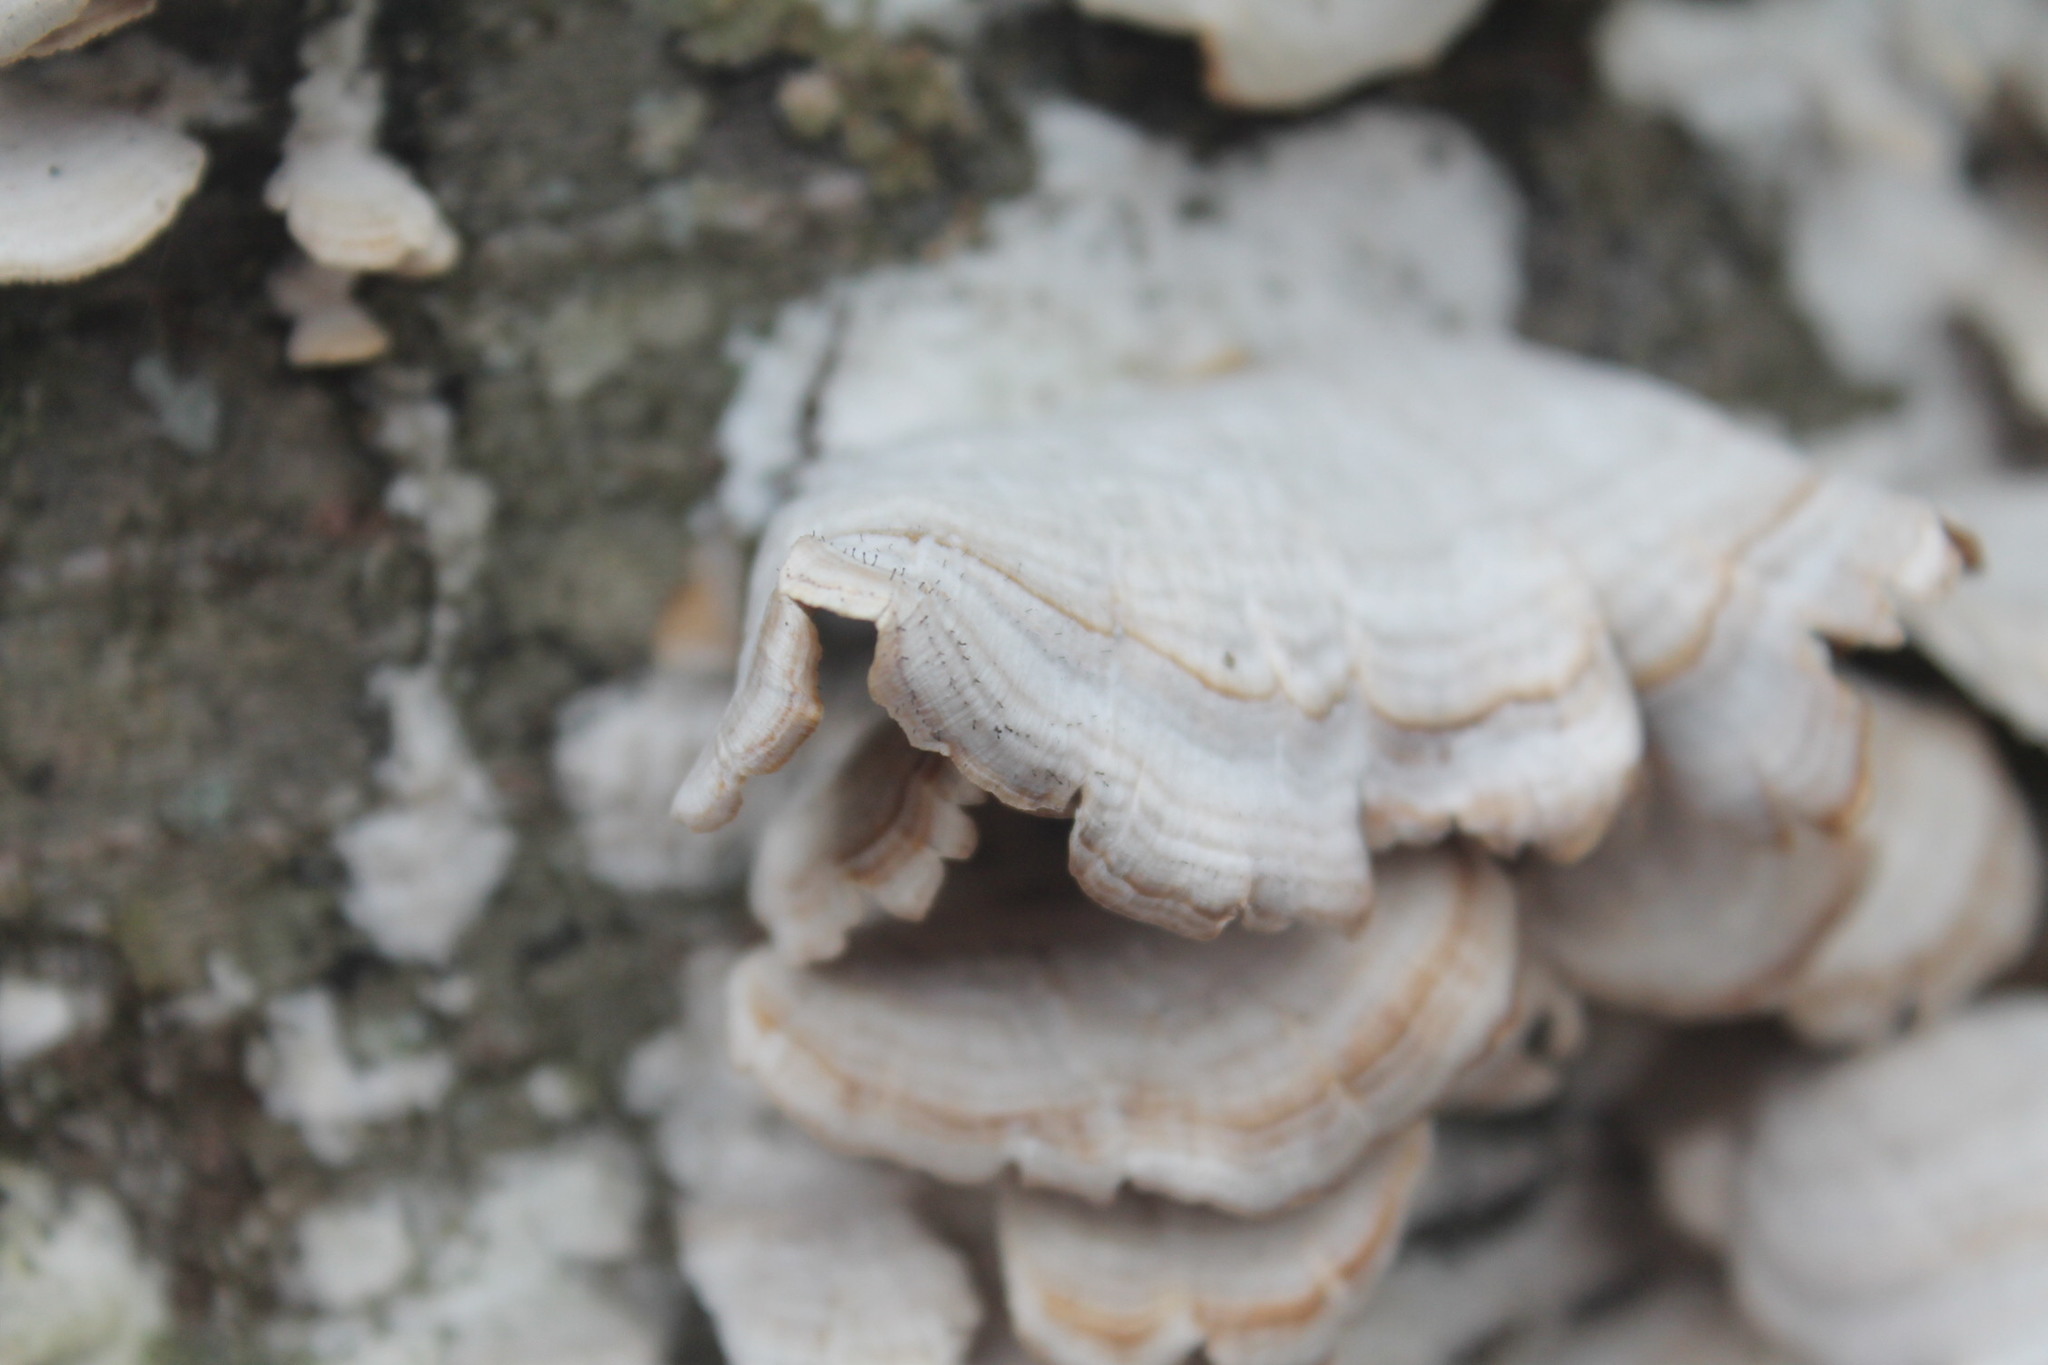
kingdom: Fungi
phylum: Ascomycota
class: Eurotiomycetes
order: Mycocaliciales
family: Mycocaliciaceae
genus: Phaeocalicium
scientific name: Phaeocalicium polyporaeum
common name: Fairy pins
